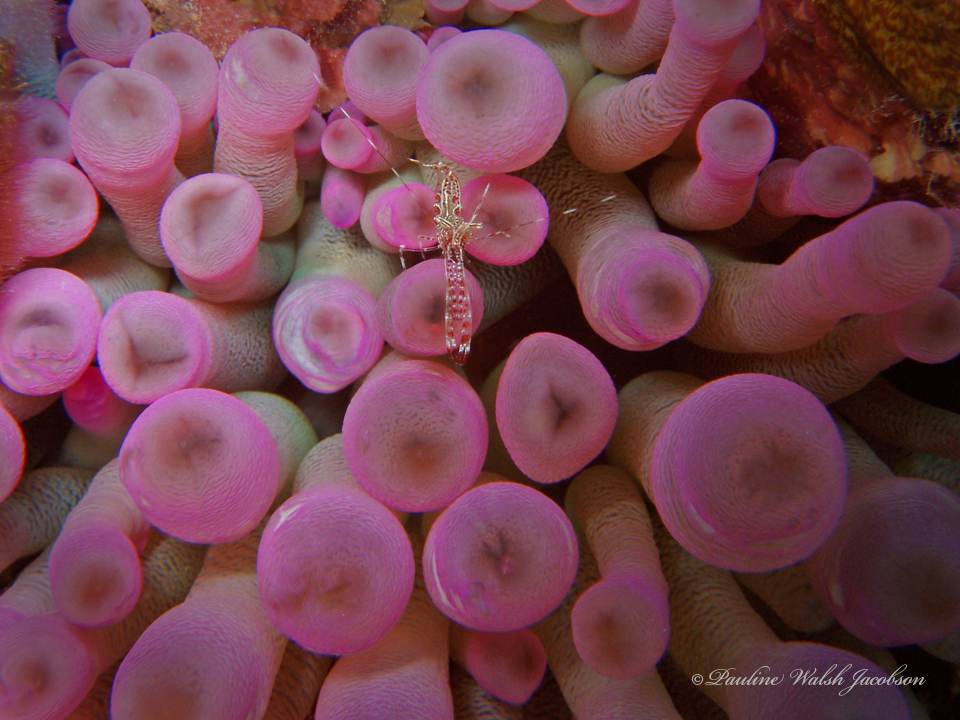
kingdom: Animalia
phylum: Arthropoda
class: Malacostraca
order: Decapoda
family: Palaemonidae
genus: Periclimenes
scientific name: Periclimenes rathbunae
